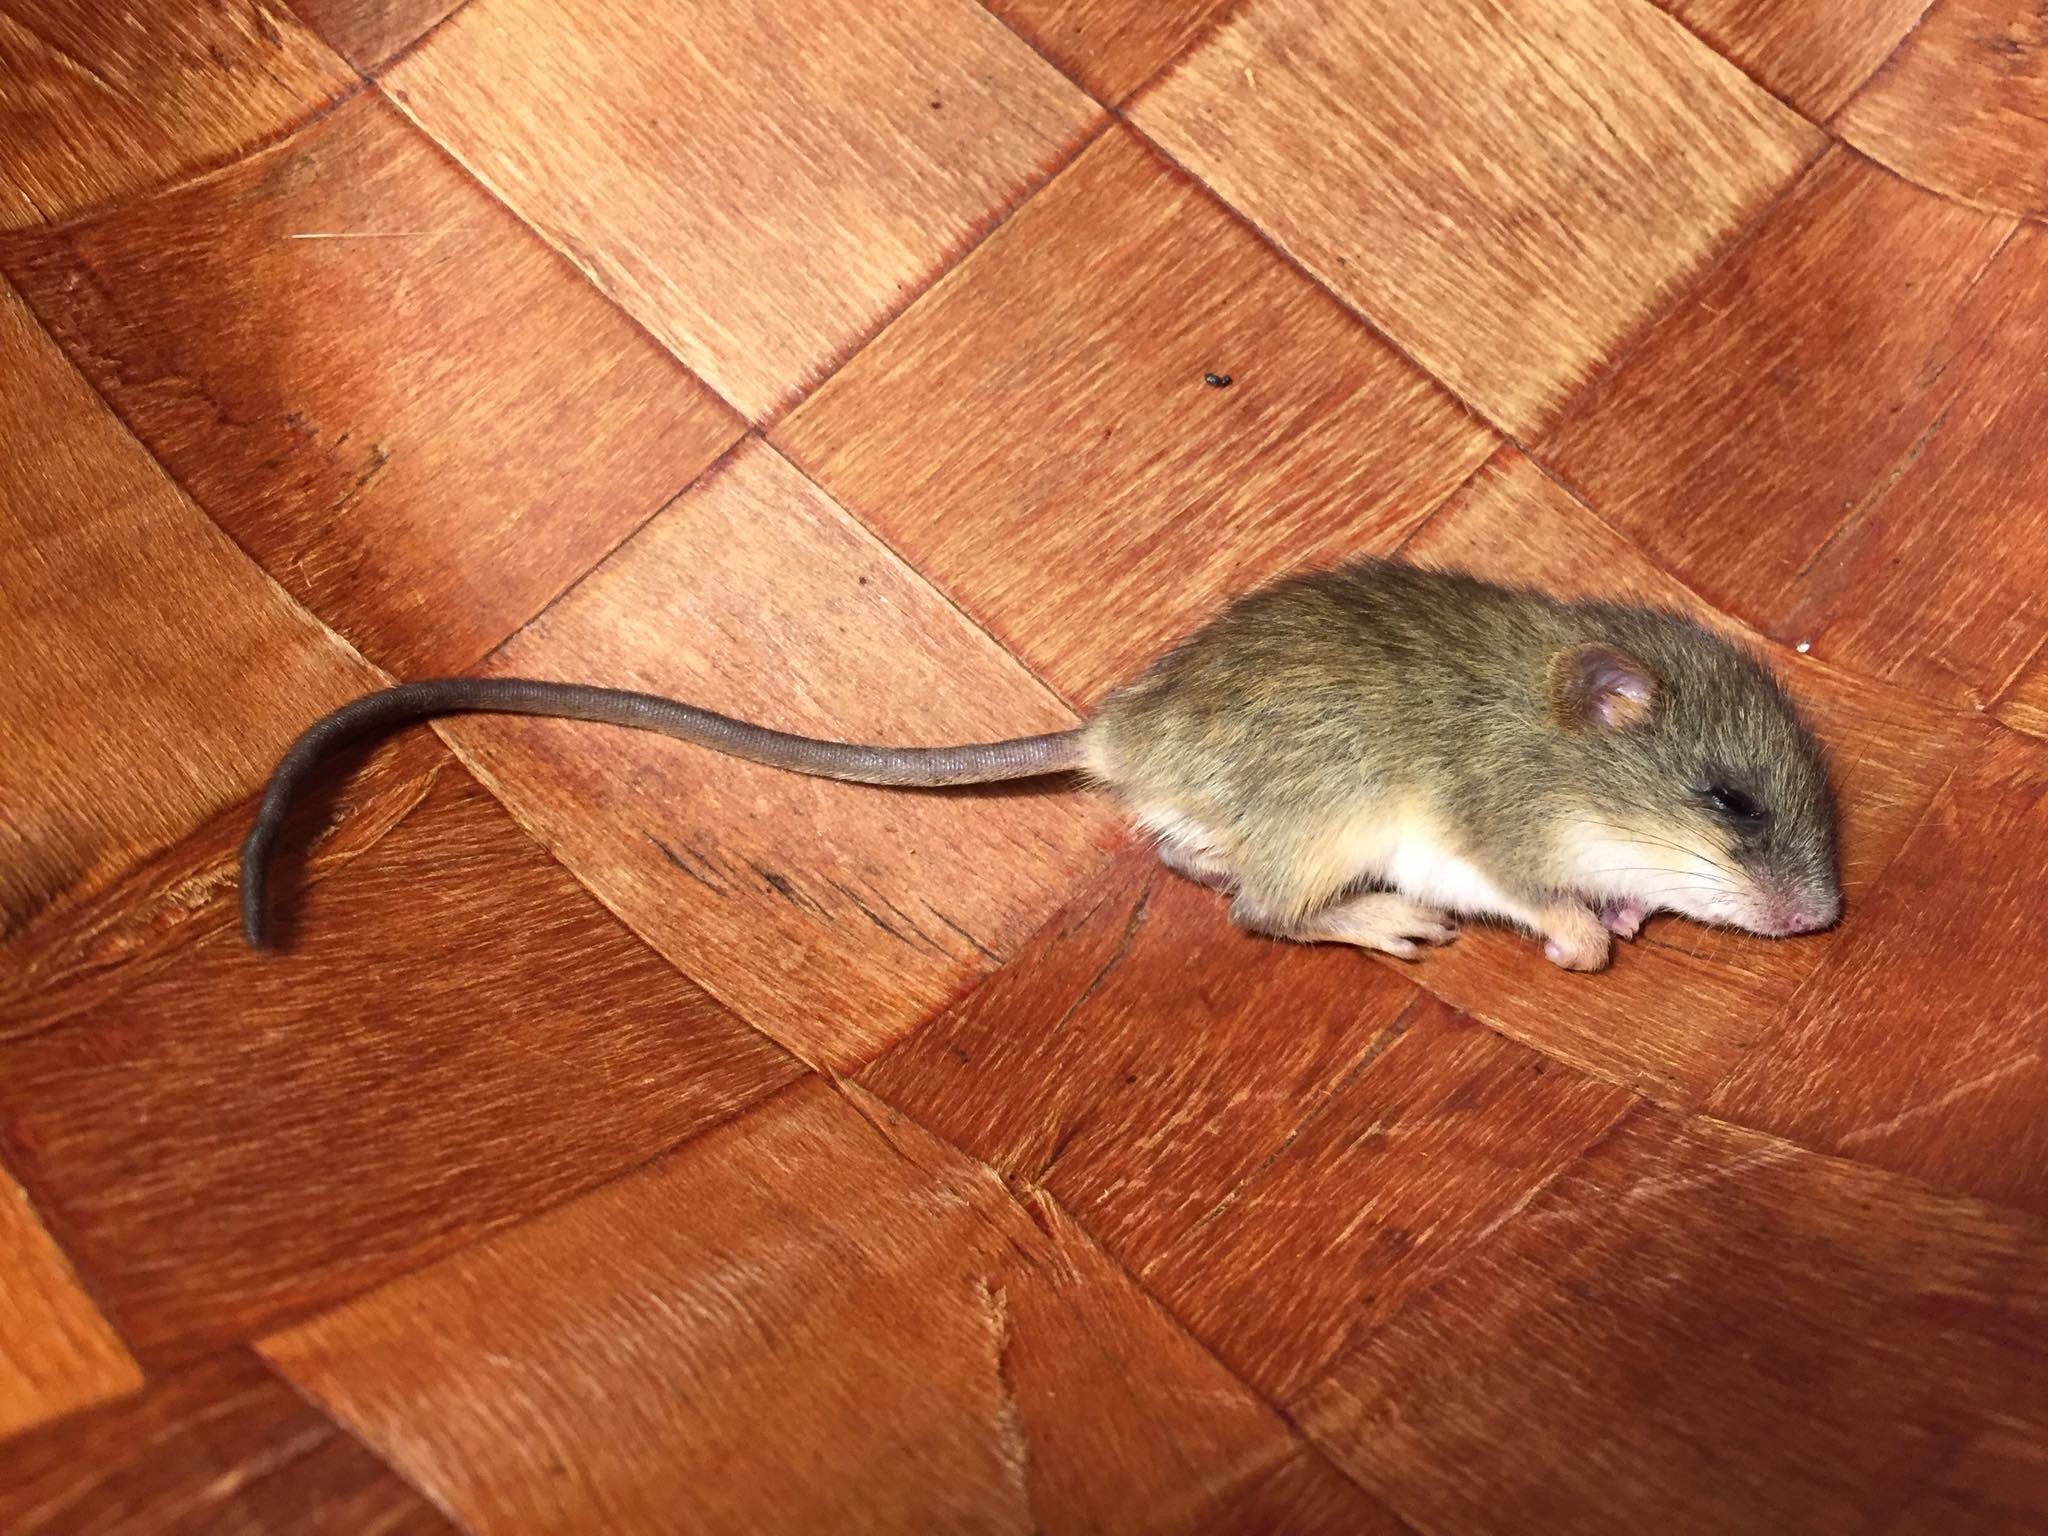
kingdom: Animalia
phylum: Chordata
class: Mammalia
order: Rodentia
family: Nesomyidae
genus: Dendromus
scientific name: Dendromus mesomelas
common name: Brant's climbing mouse
